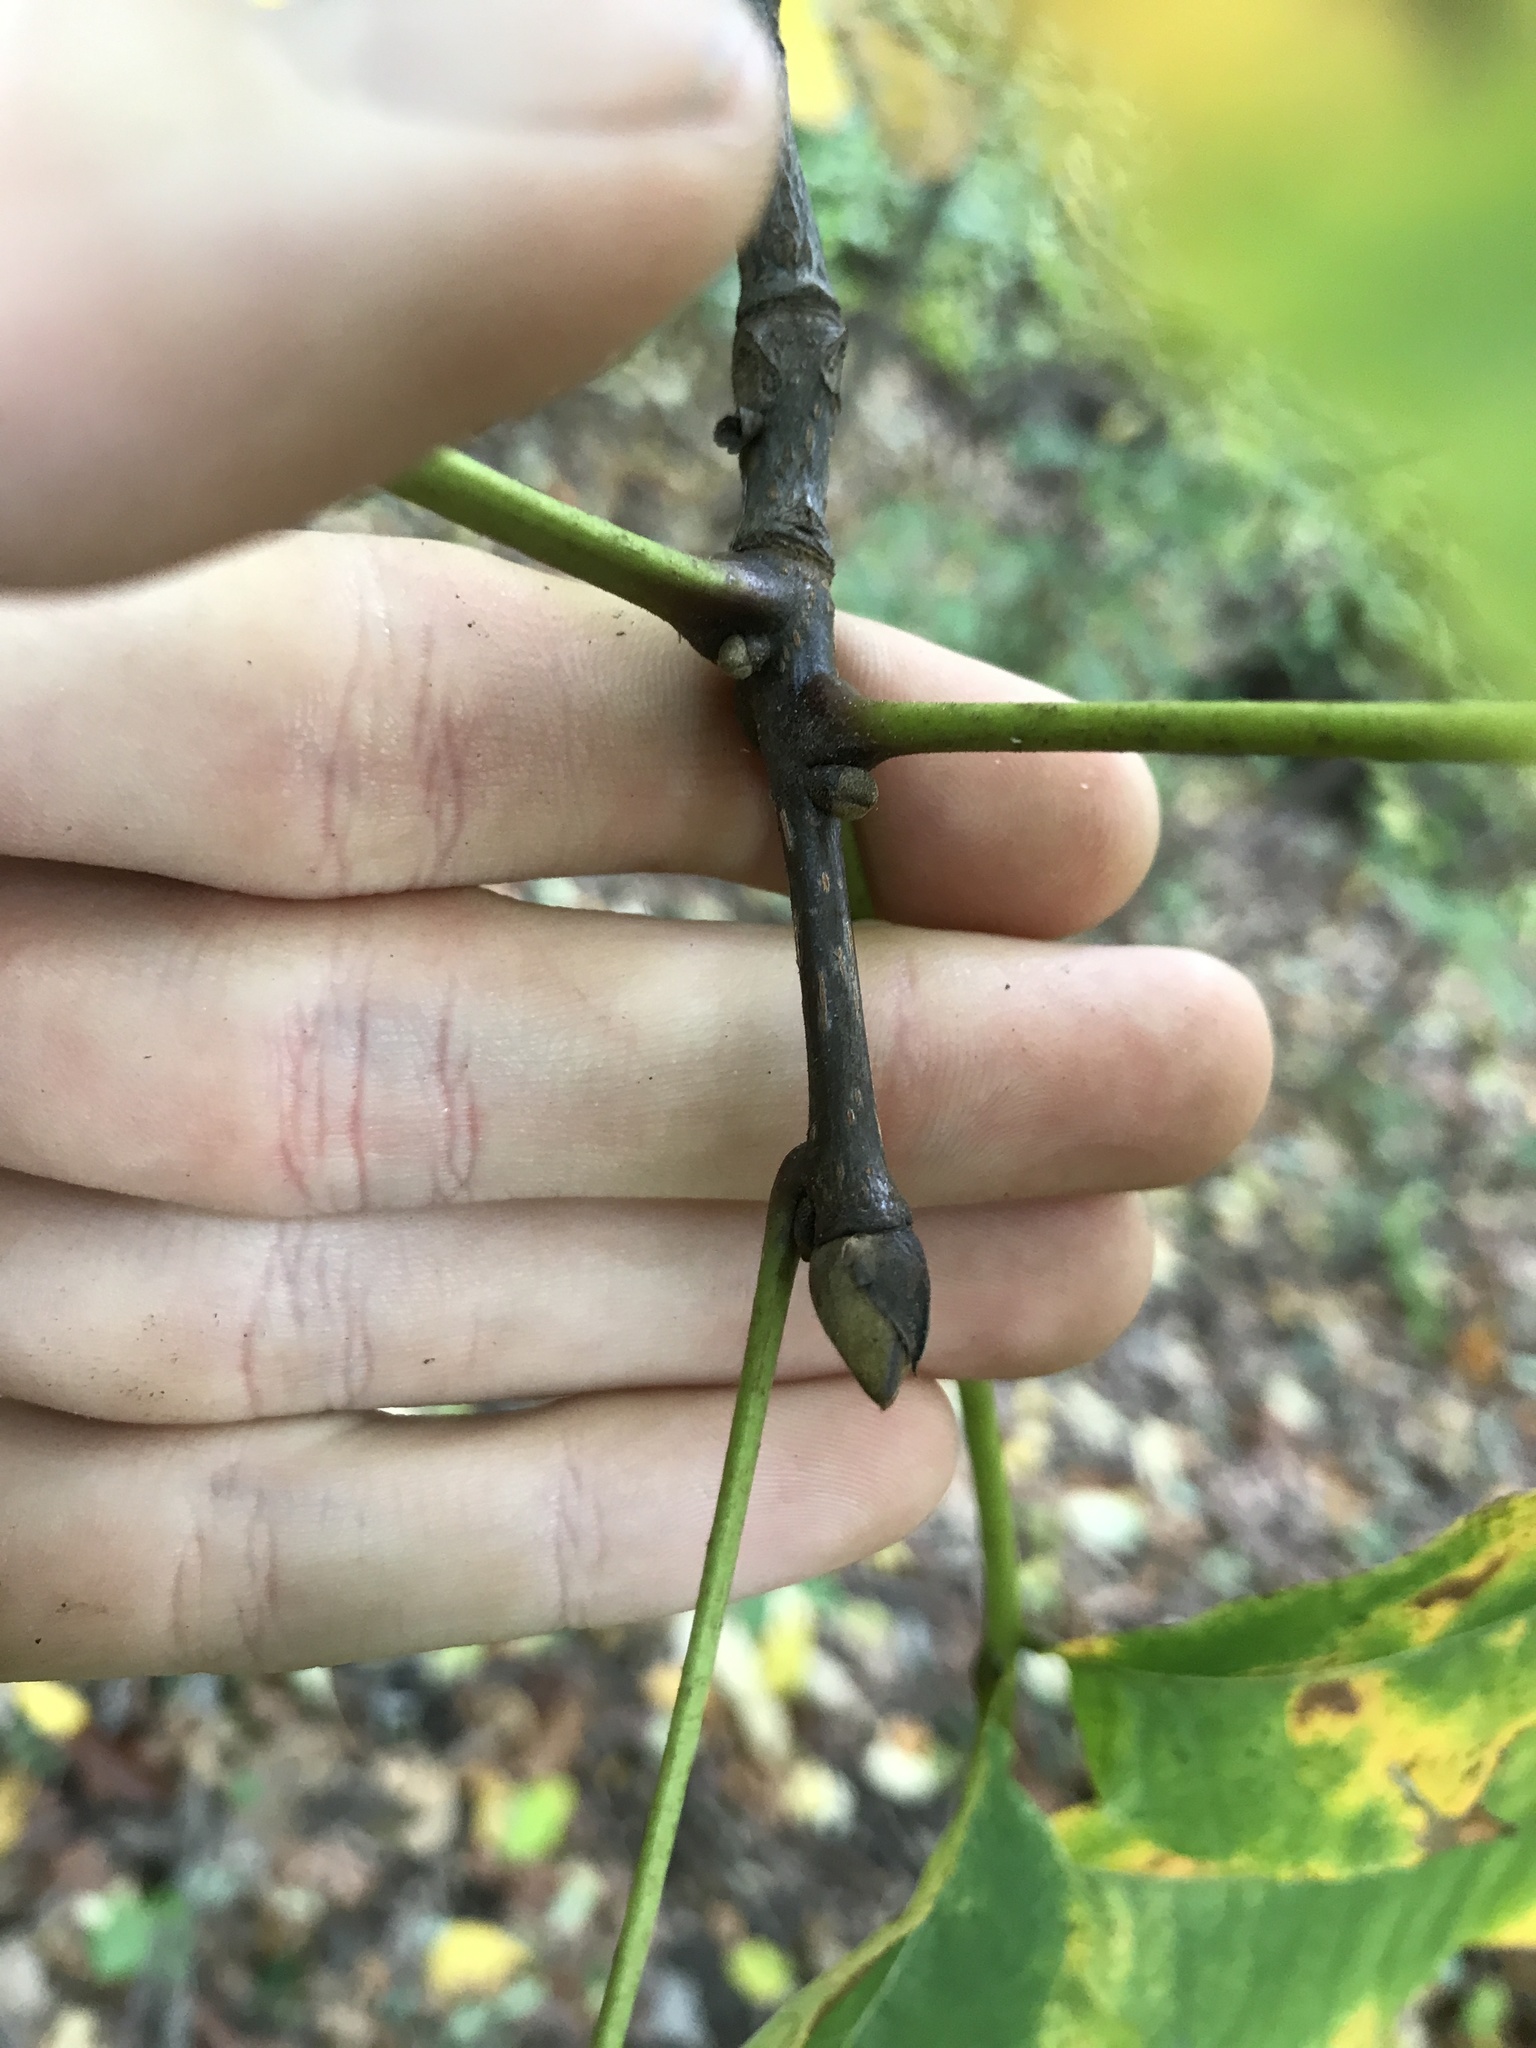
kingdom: Plantae
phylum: Tracheophyta
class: Magnoliopsida
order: Fagales
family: Juglandaceae
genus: Carya
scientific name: Carya glabra
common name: Pignut hickory
